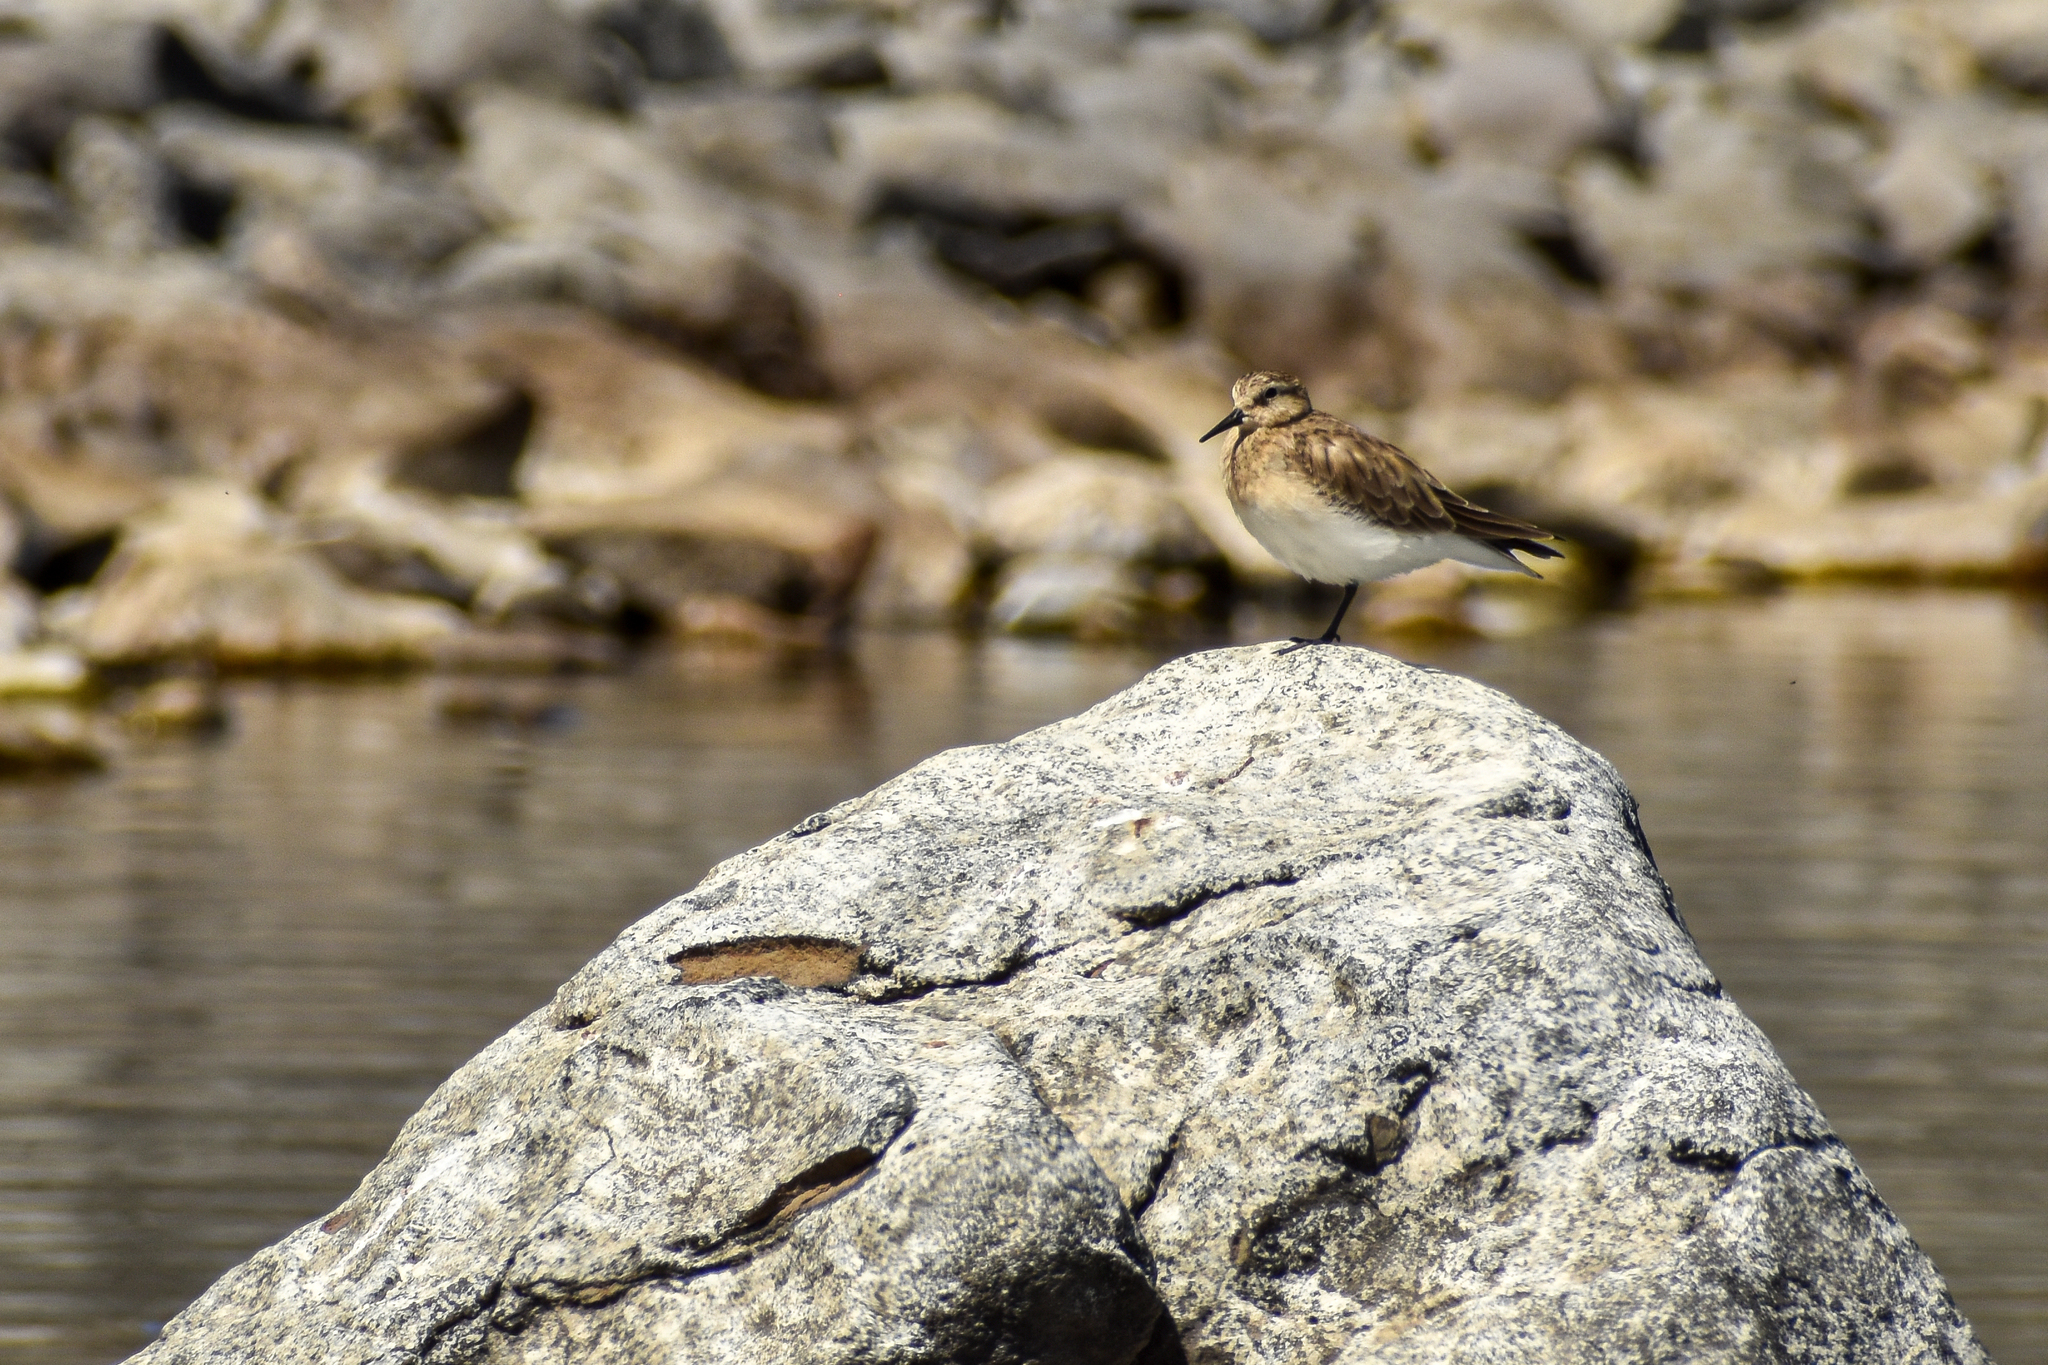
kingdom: Animalia
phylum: Chordata
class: Aves
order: Charadriiformes
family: Scolopacidae
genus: Calidris
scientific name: Calidris bairdii
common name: Baird's sandpiper
